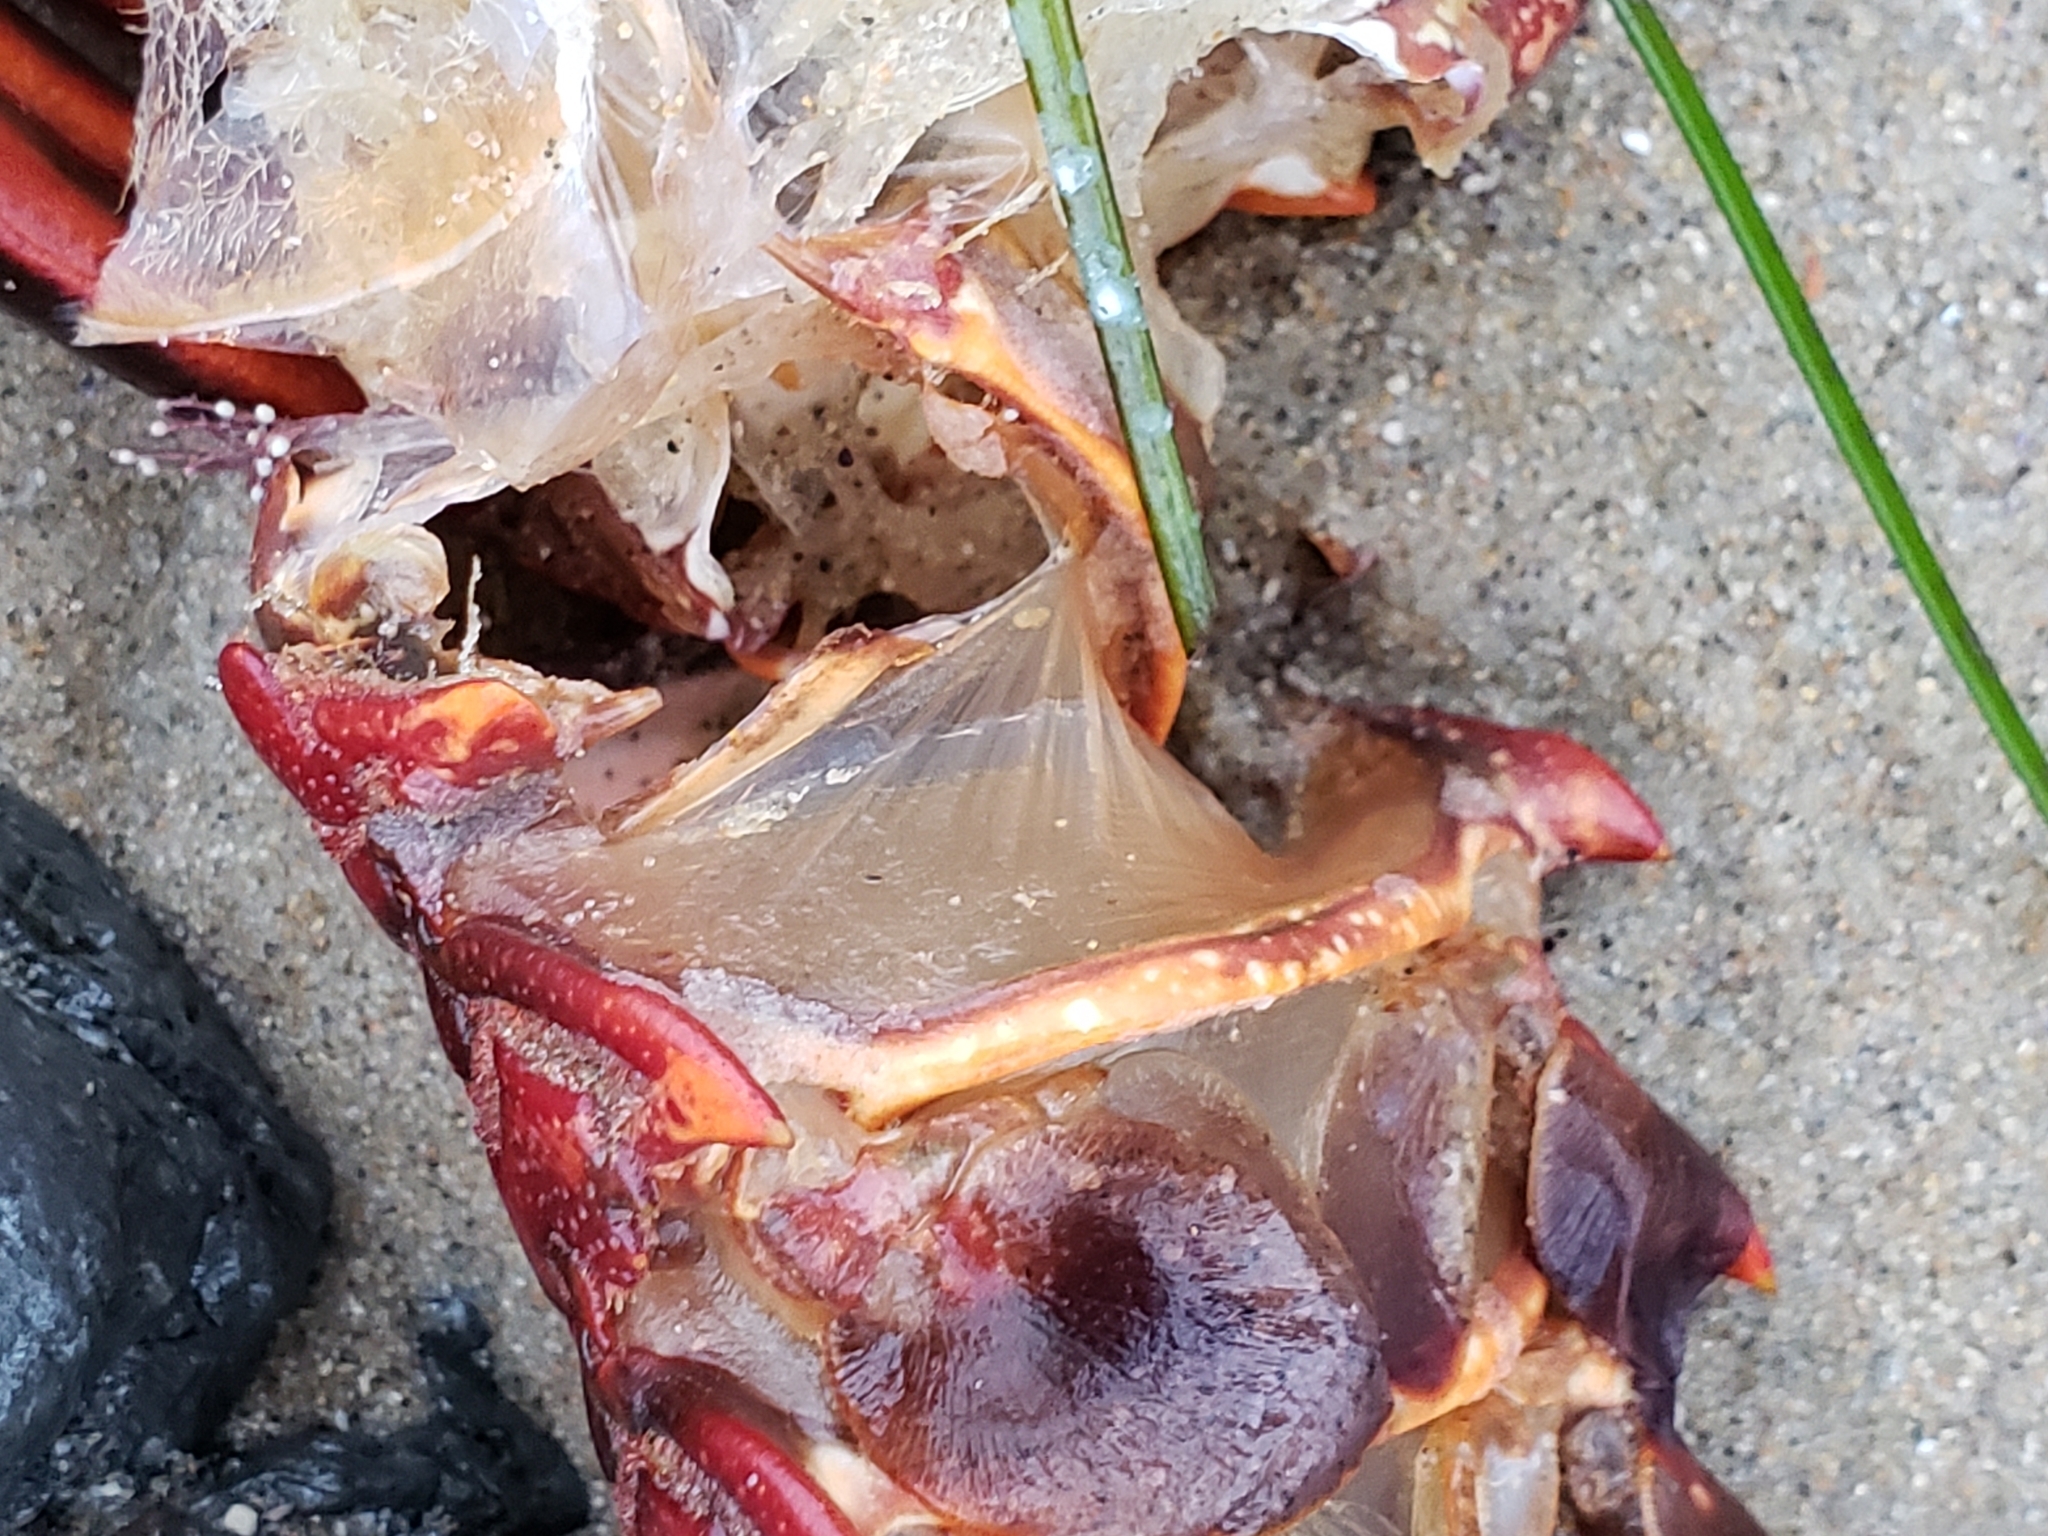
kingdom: Animalia
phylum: Arthropoda
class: Malacostraca
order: Decapoda
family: Palinuridae
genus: Panulirus
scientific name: Panulirus interruptus
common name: California spiny lobster
